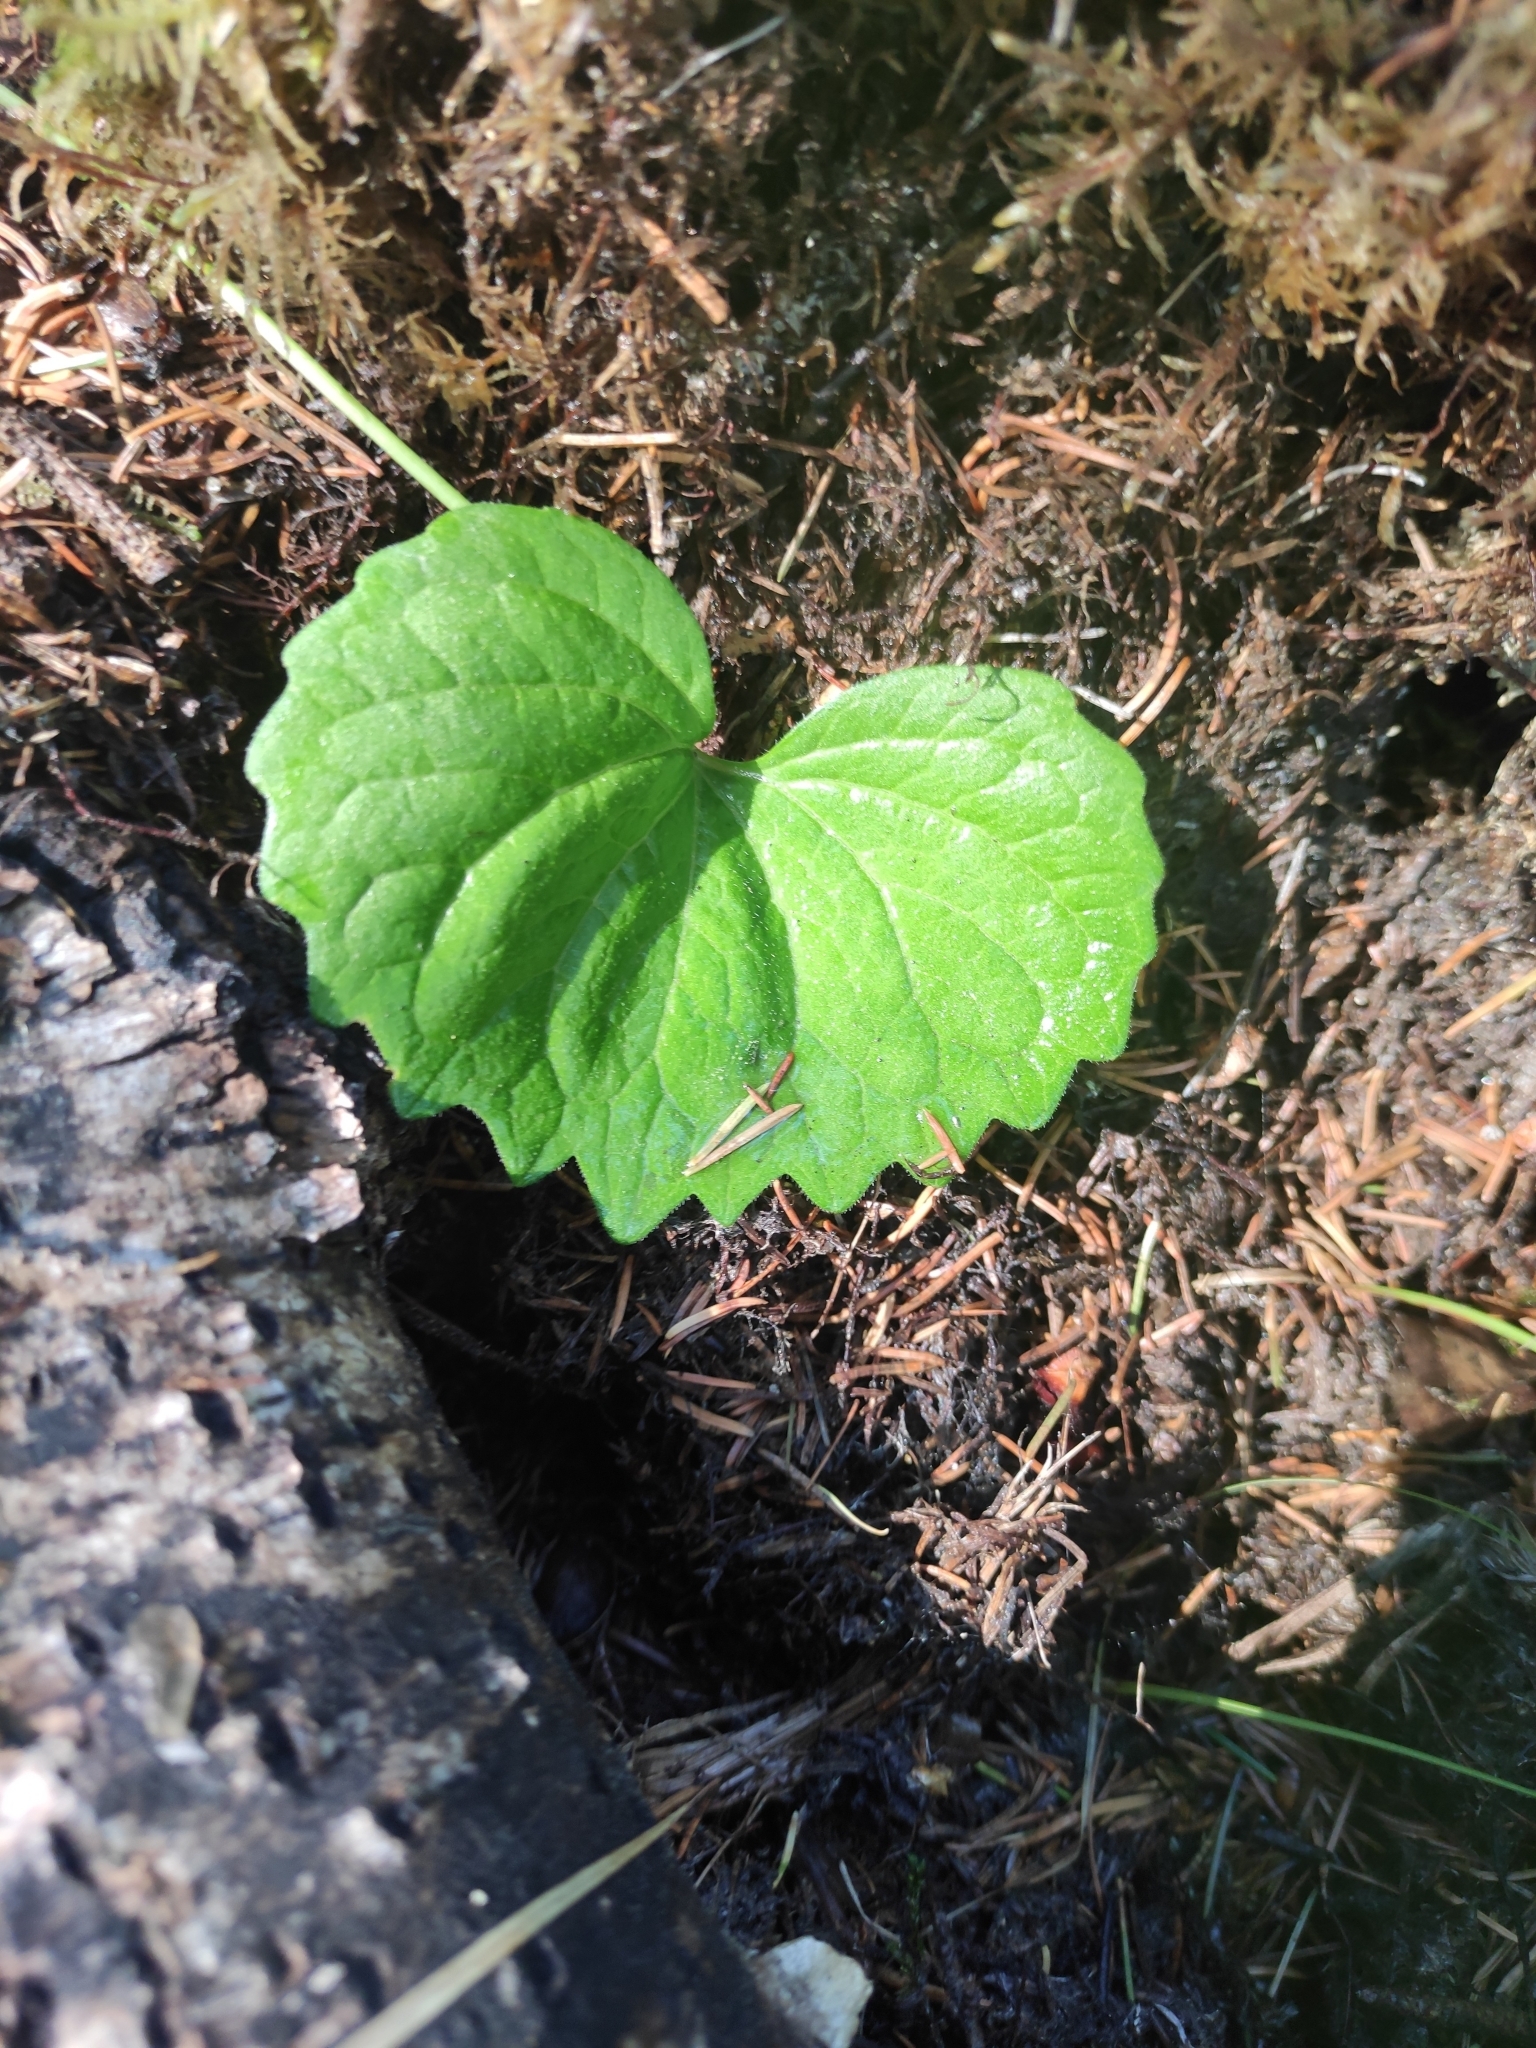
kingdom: Plantae
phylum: Tracheophyta
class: Magnoliopsida
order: Malpighiales
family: Violaceae
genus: Viola
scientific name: Viola uniflora
